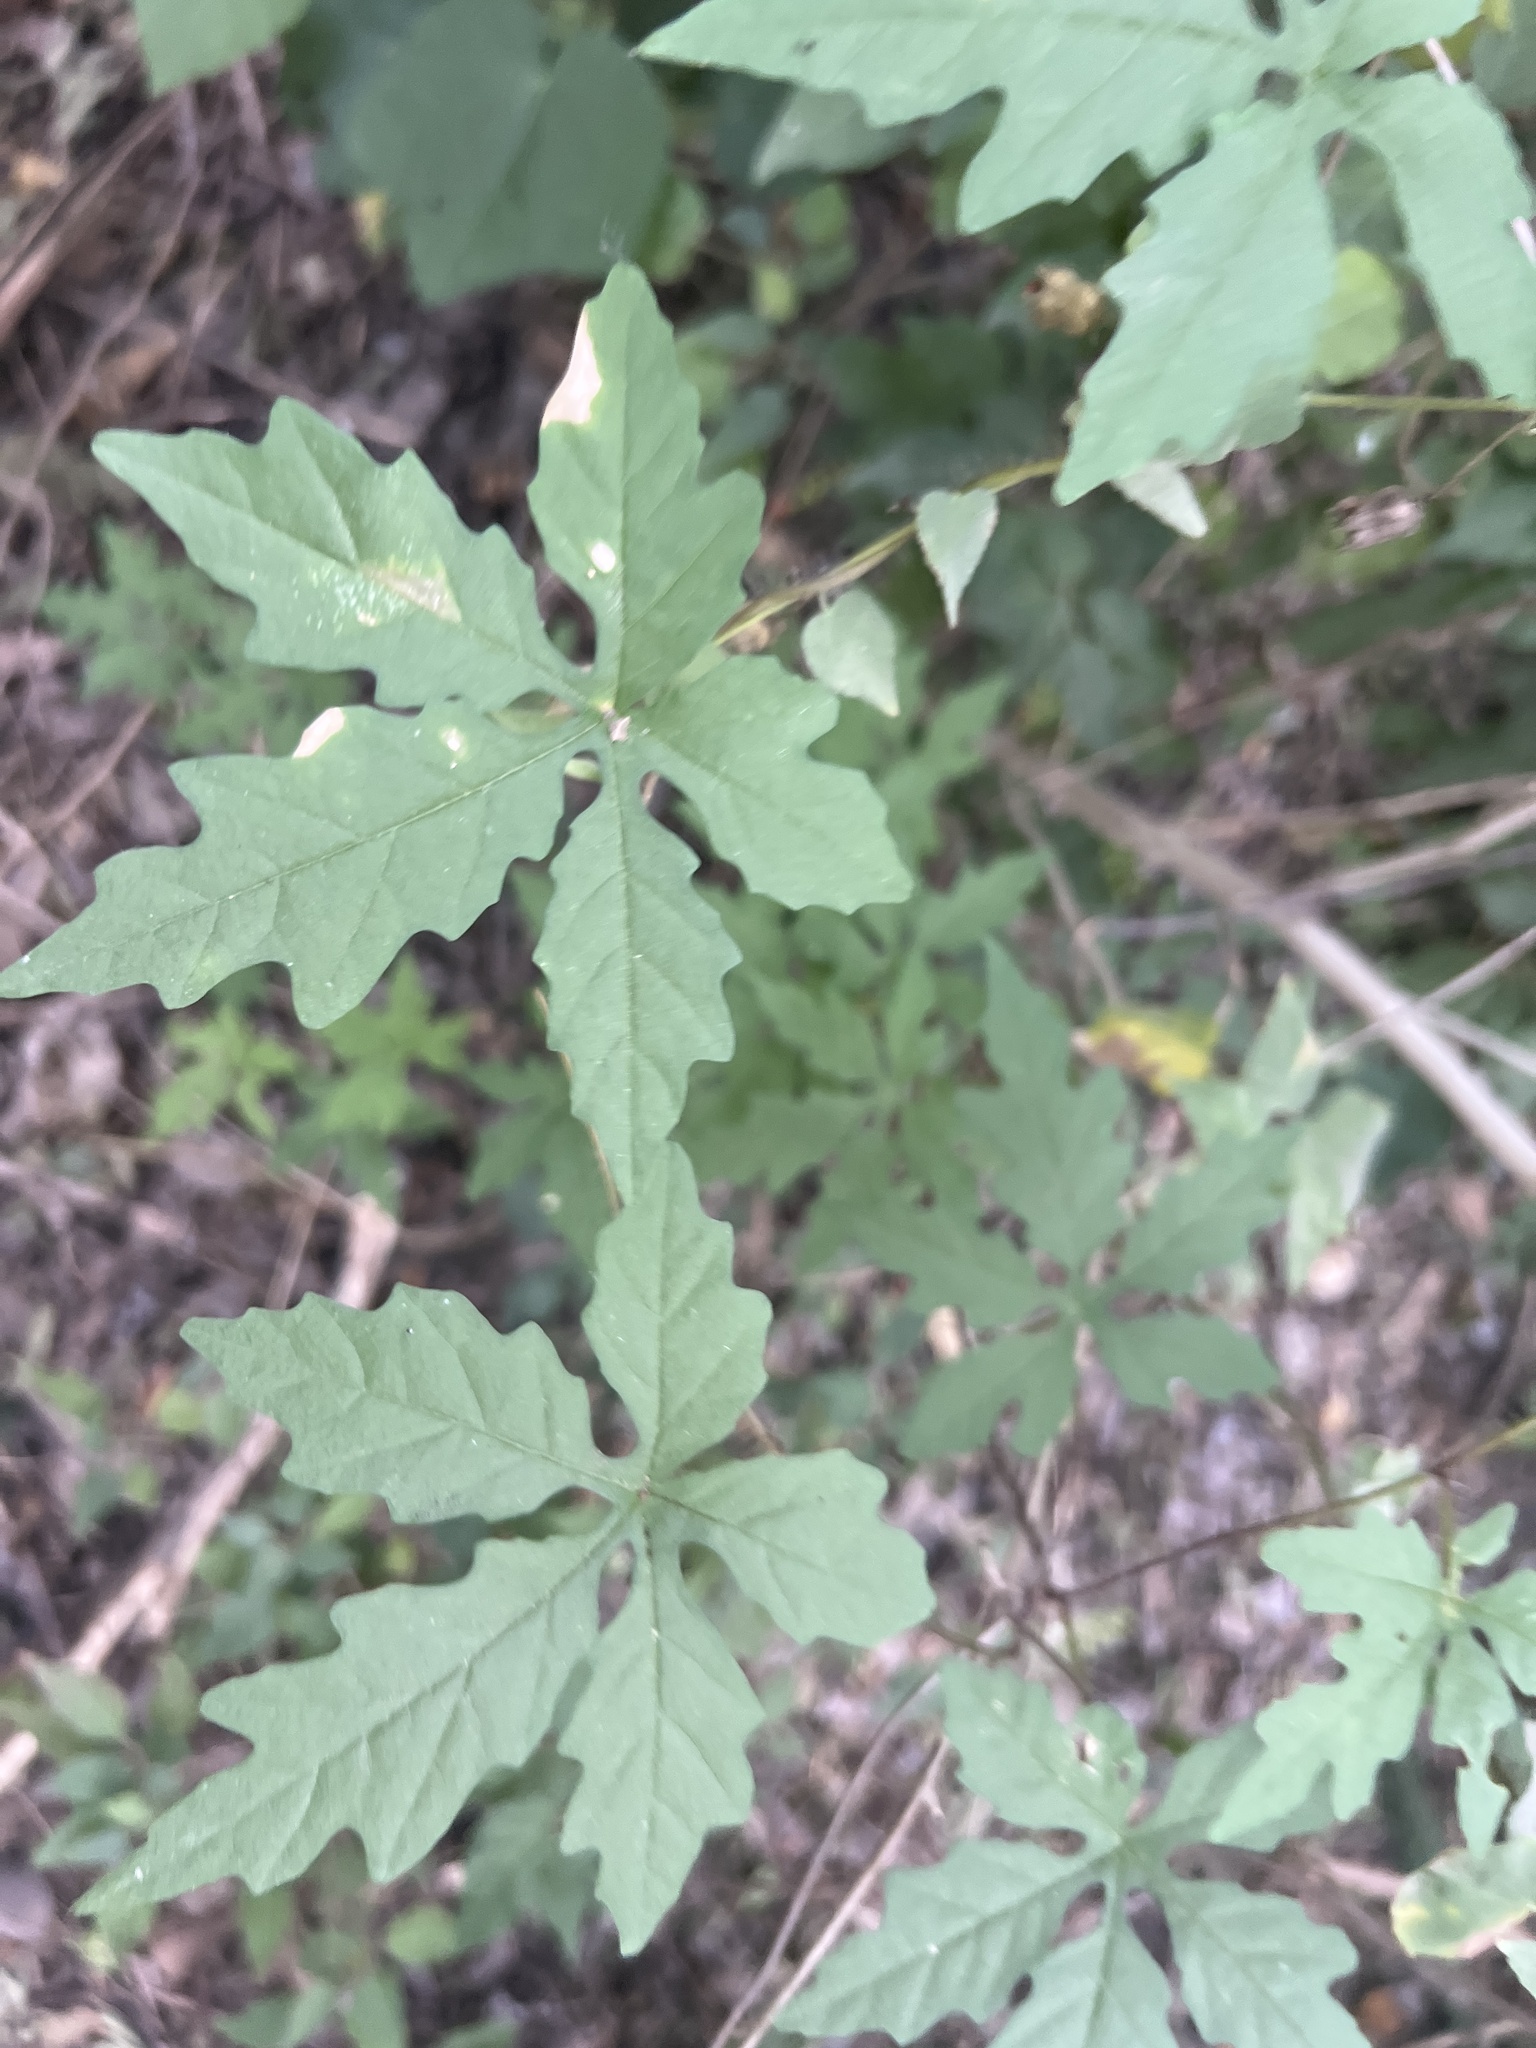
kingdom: Plantae
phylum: Tracheophyta
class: Magnoliopsida
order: Solanales
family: Convolvulaceae
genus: Distimake
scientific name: Distimake dissectus
